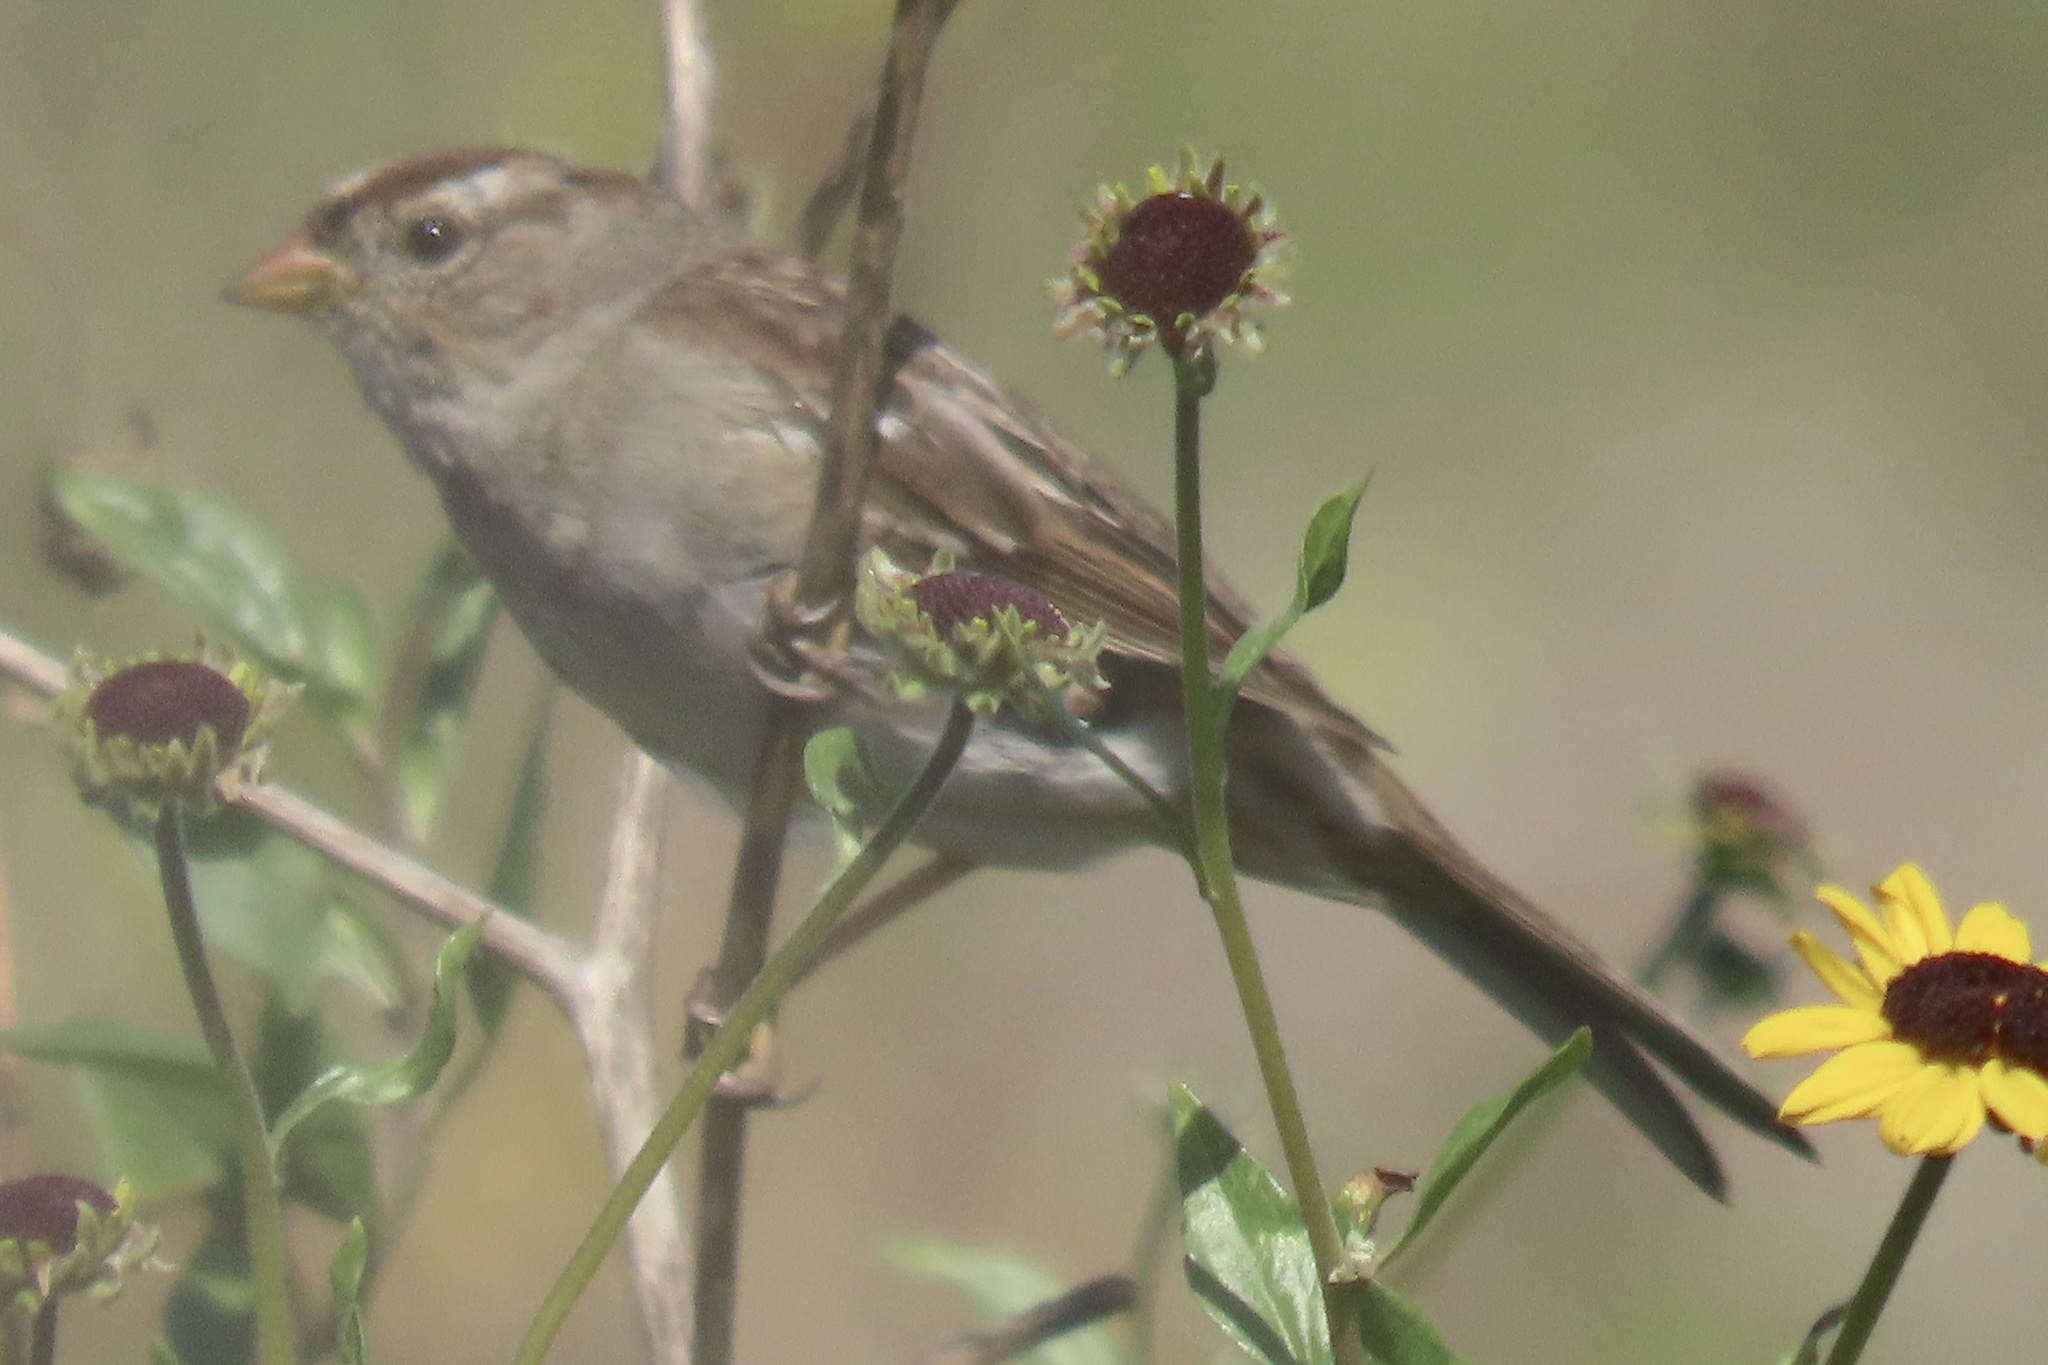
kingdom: Animalia
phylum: Chordata
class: Aves
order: Passeriformes
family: Passerellidae
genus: Zonotrichia
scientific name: Zonotrichia leucophrys
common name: White-crowned sparrow
